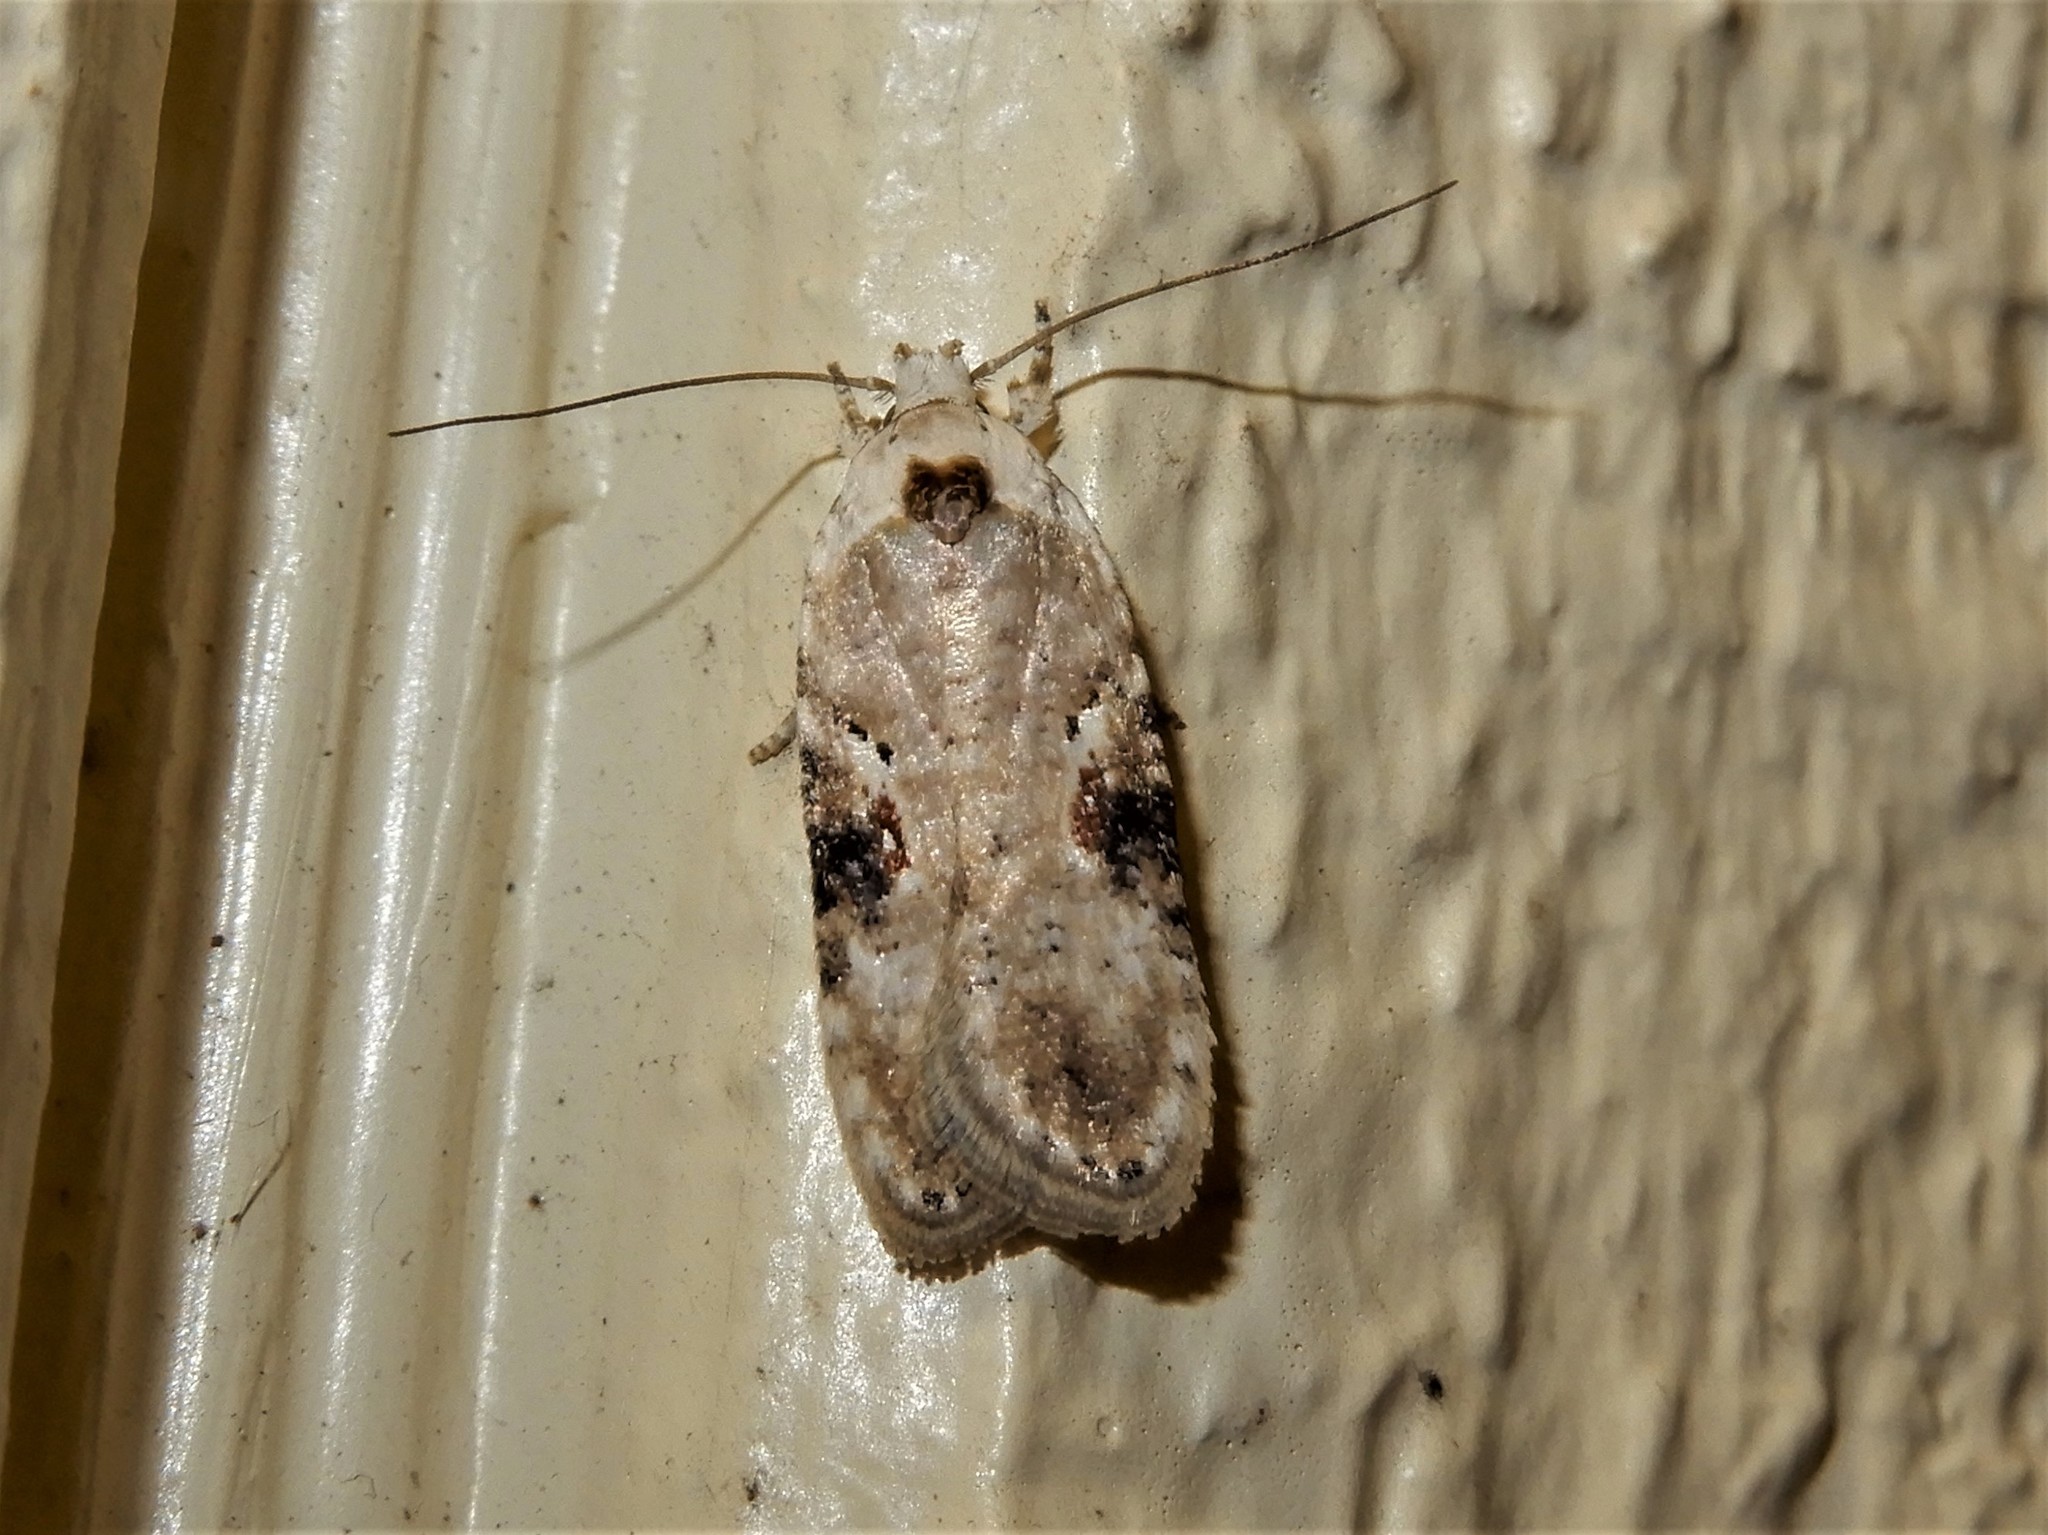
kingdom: Animalia
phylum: Arthropoda
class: Insecta
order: Lepidoptera
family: Depressariidae
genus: Agonopterix
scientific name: Agonopterix alstroemeriana
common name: Moth
